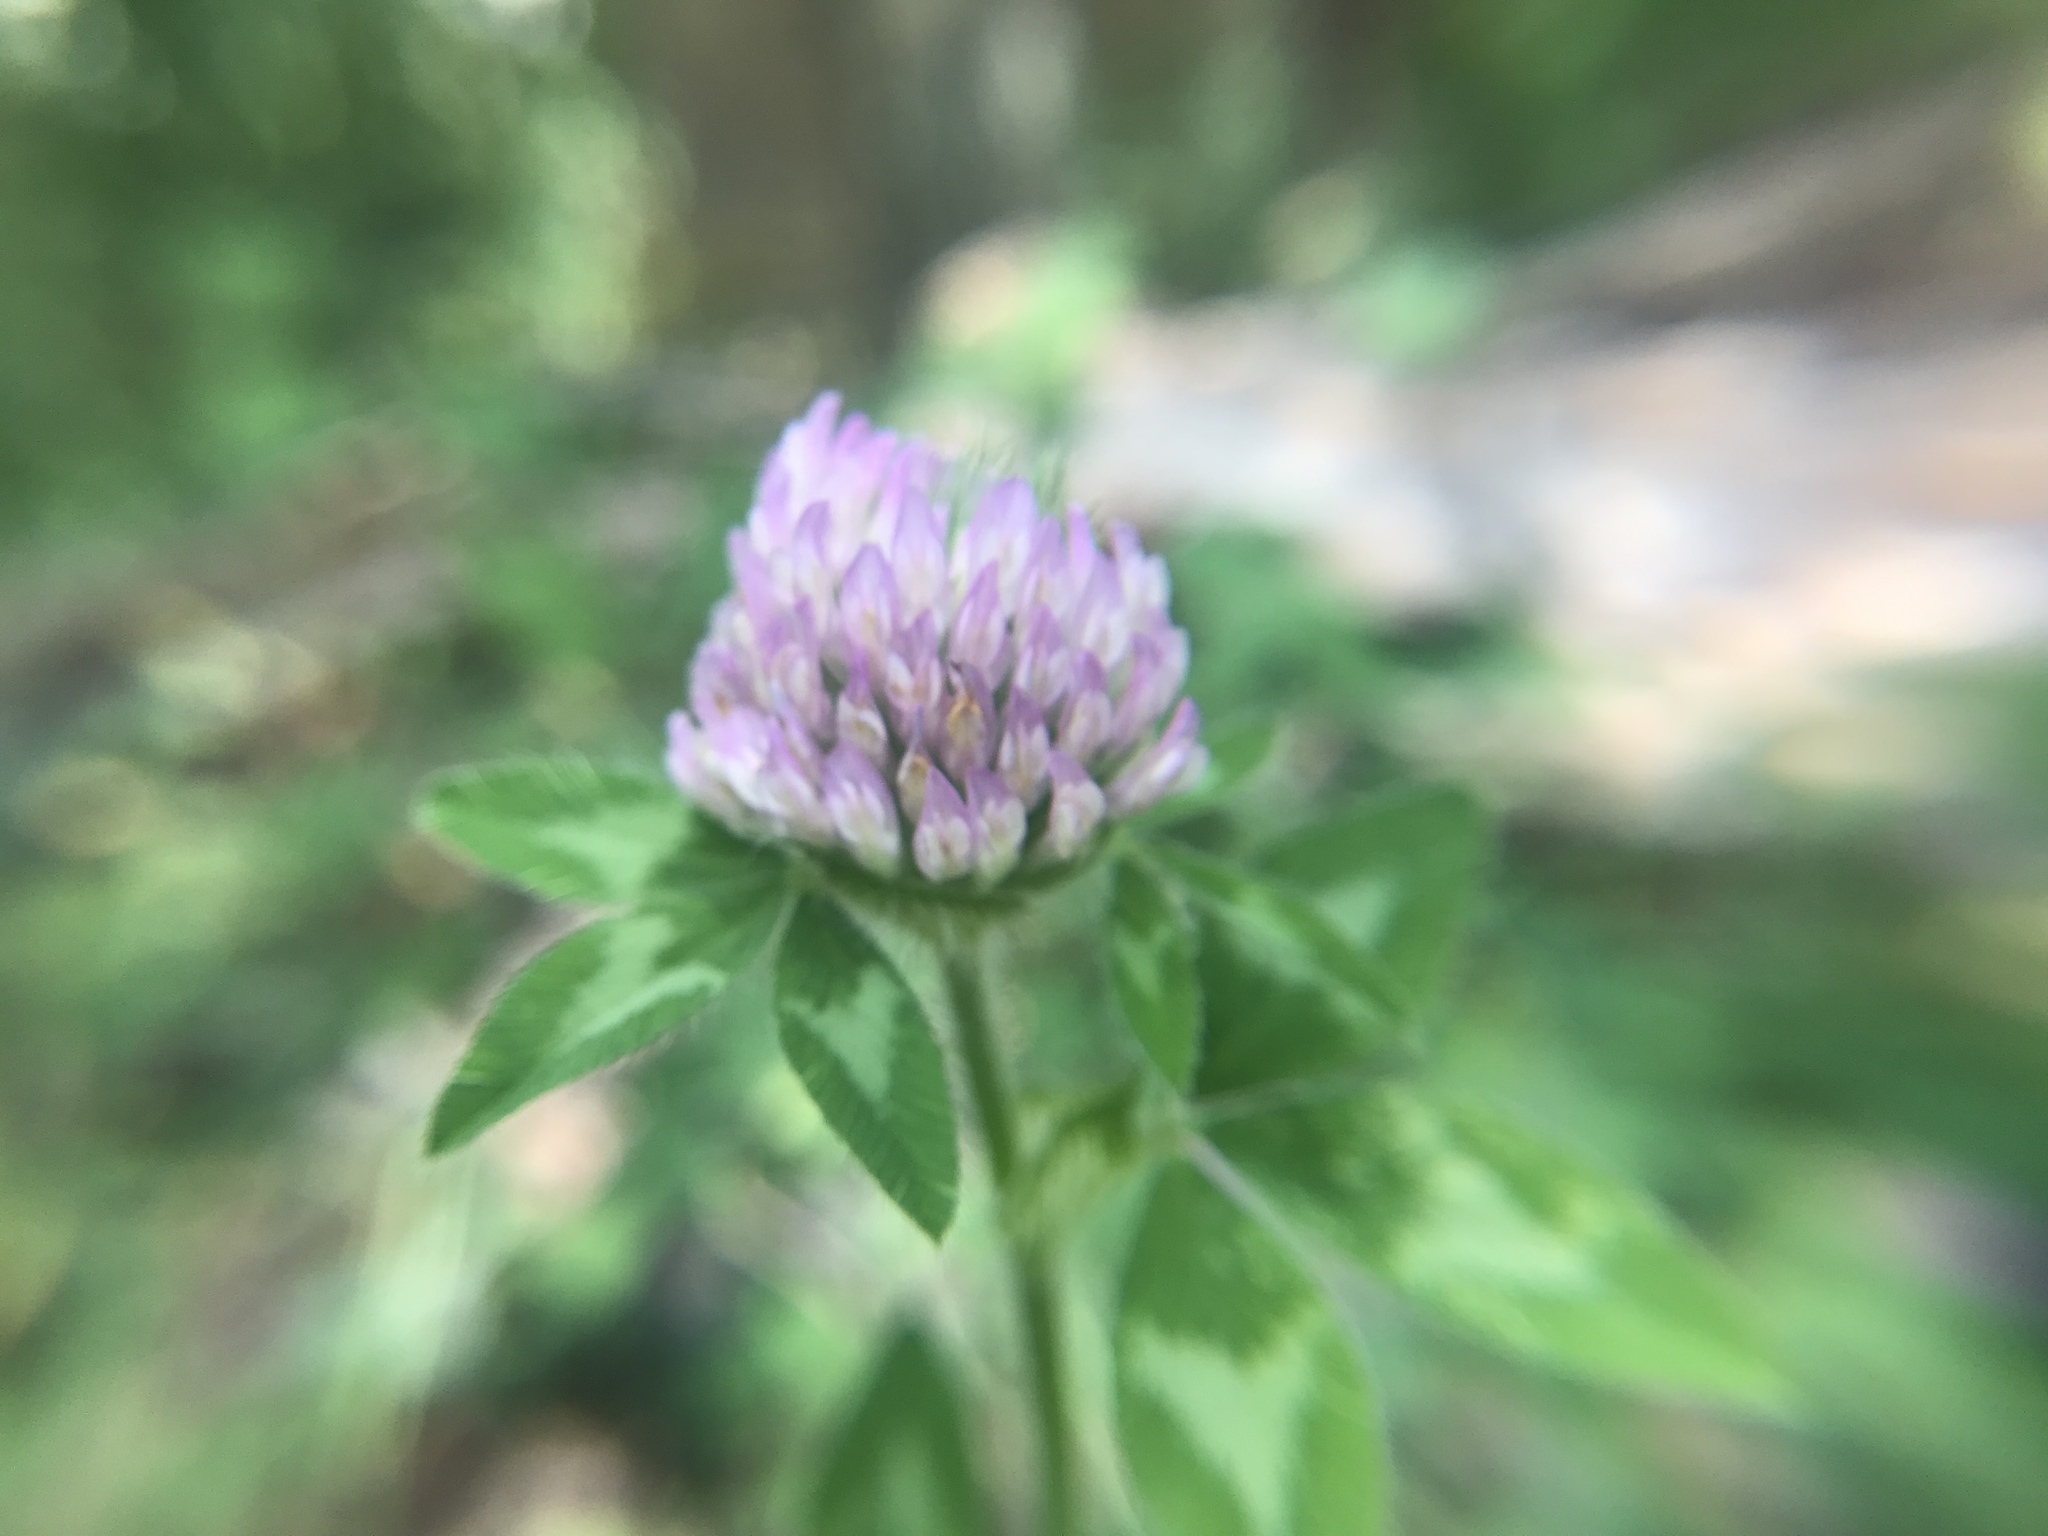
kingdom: Plantae
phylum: Tracheophyta
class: Magnoliopsida
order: Fabales
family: Fabaceae
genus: Trifolium
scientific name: Trifolium pratense
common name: Red clover
